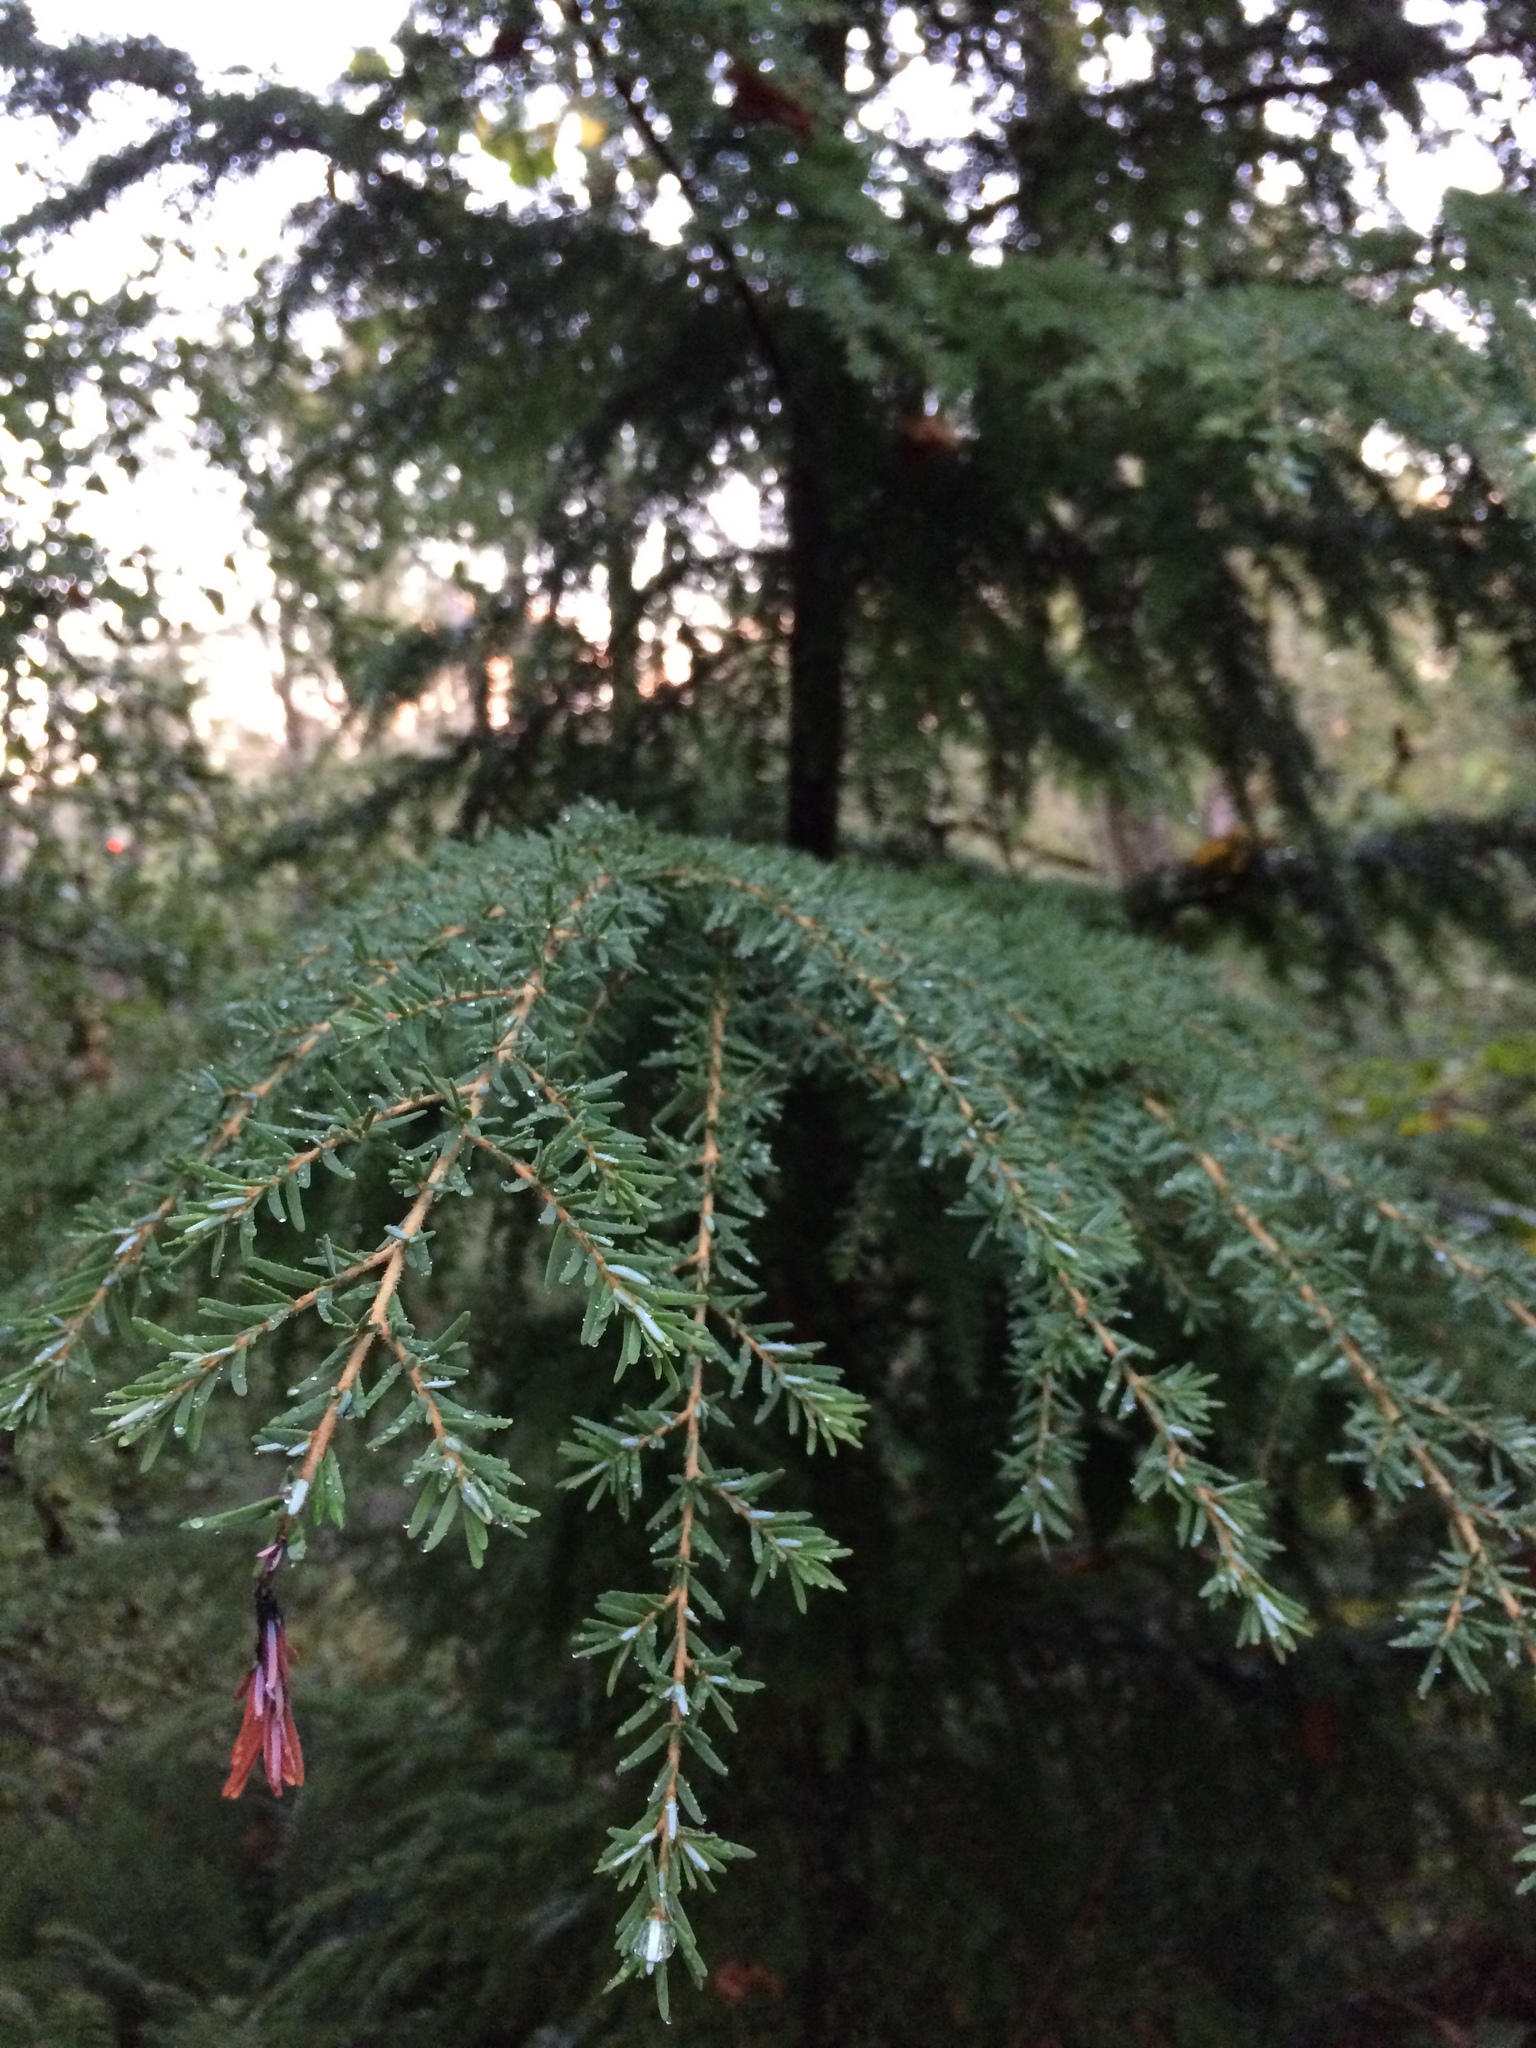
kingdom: Plantae
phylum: Tracheophyta
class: Pinopsida
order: Pinales
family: Pinaceae
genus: Tsuga
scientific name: Tsuga heterophylla
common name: Western hemlock
